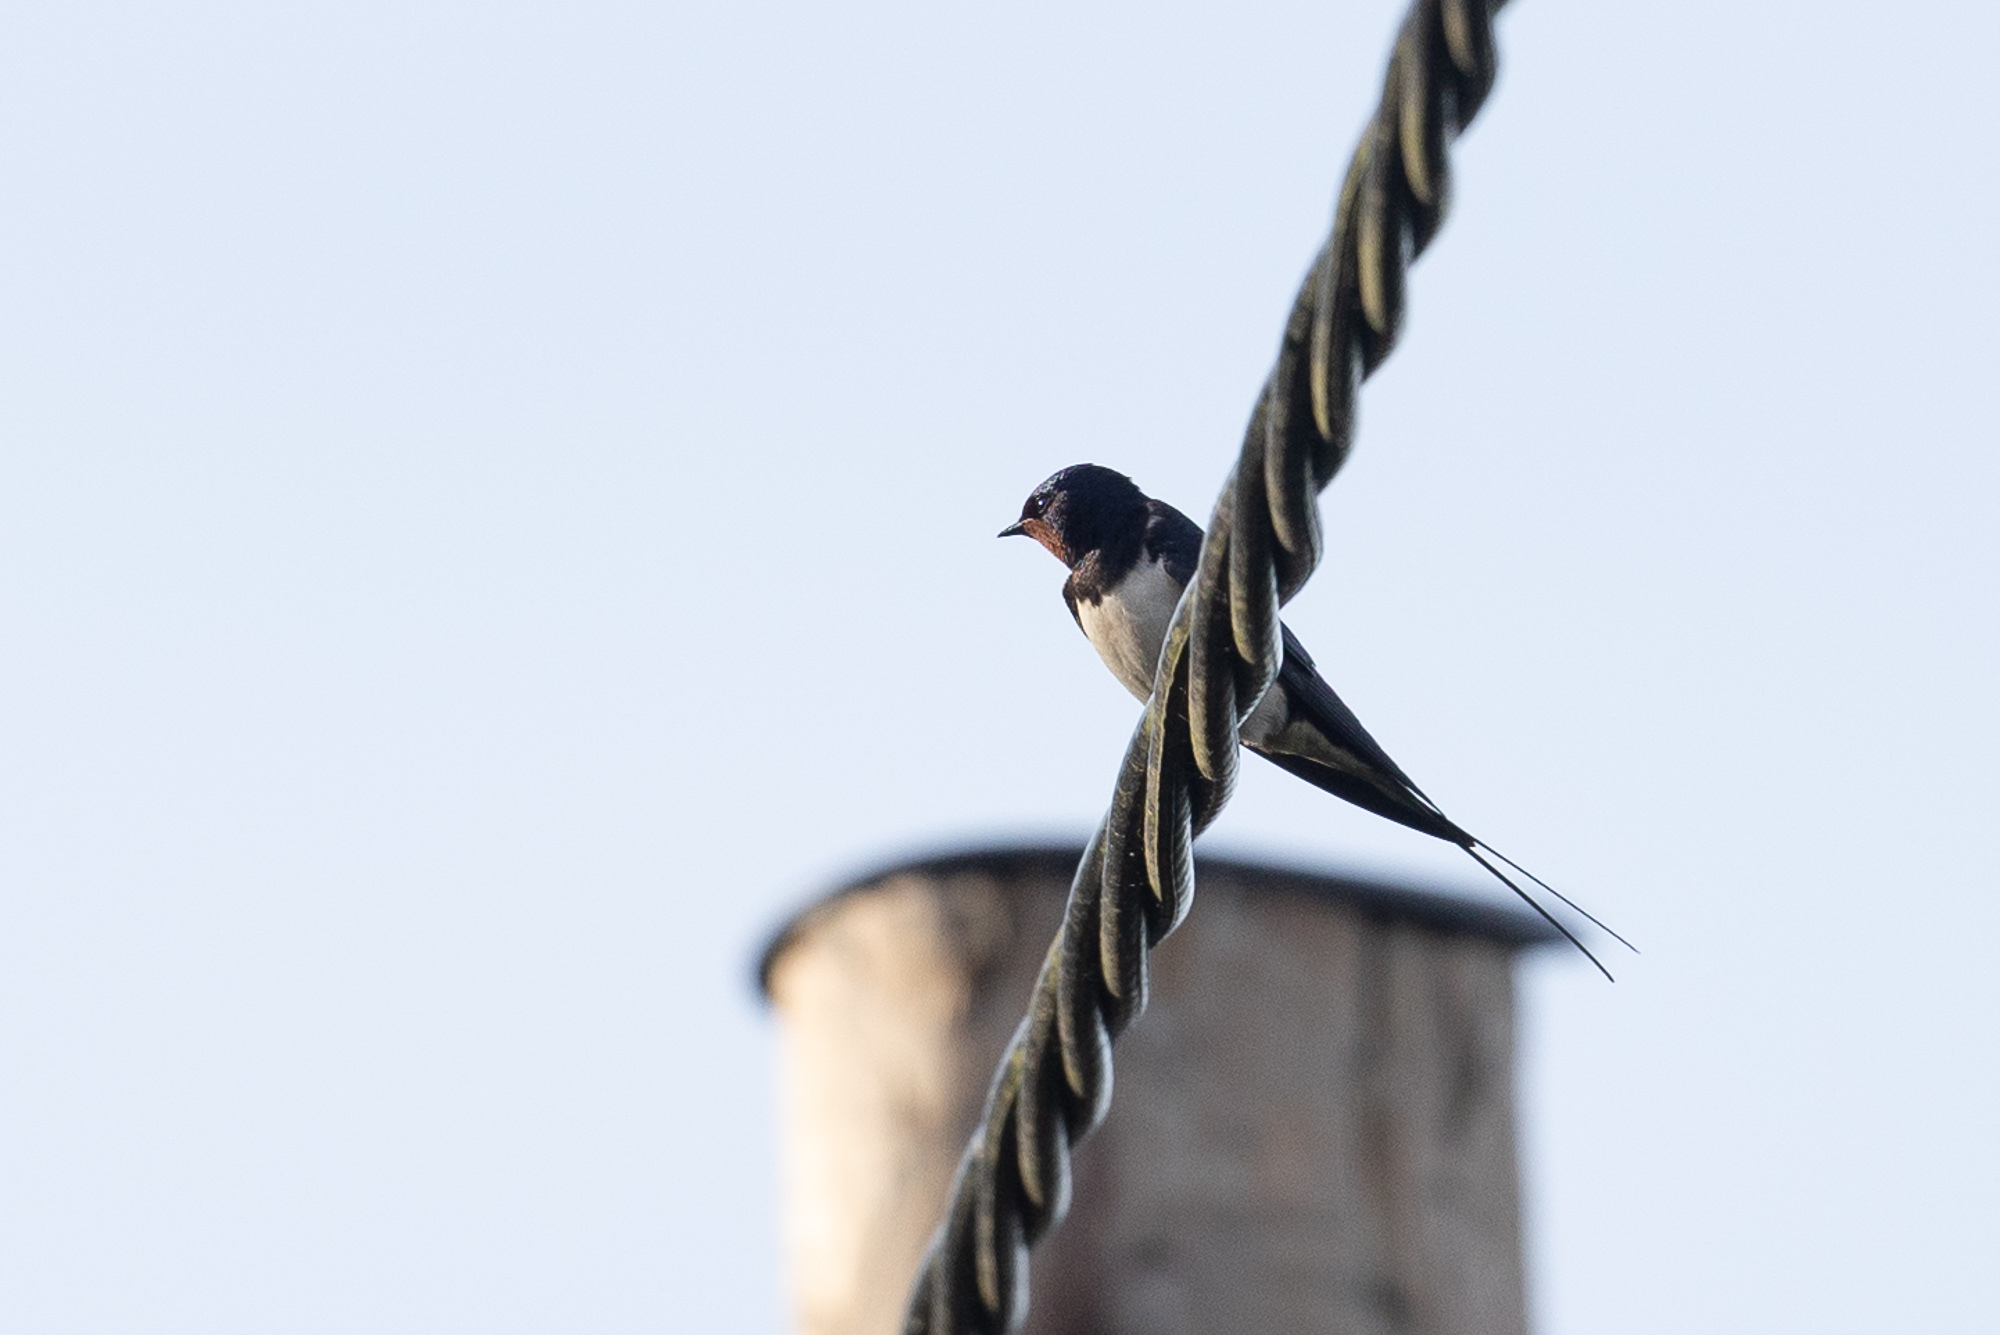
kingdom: Animalia
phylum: Chordata
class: Aves
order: Passeriformes
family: Hirundinidae
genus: Hirundo
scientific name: Hirundo rustica
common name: Barn swallow
